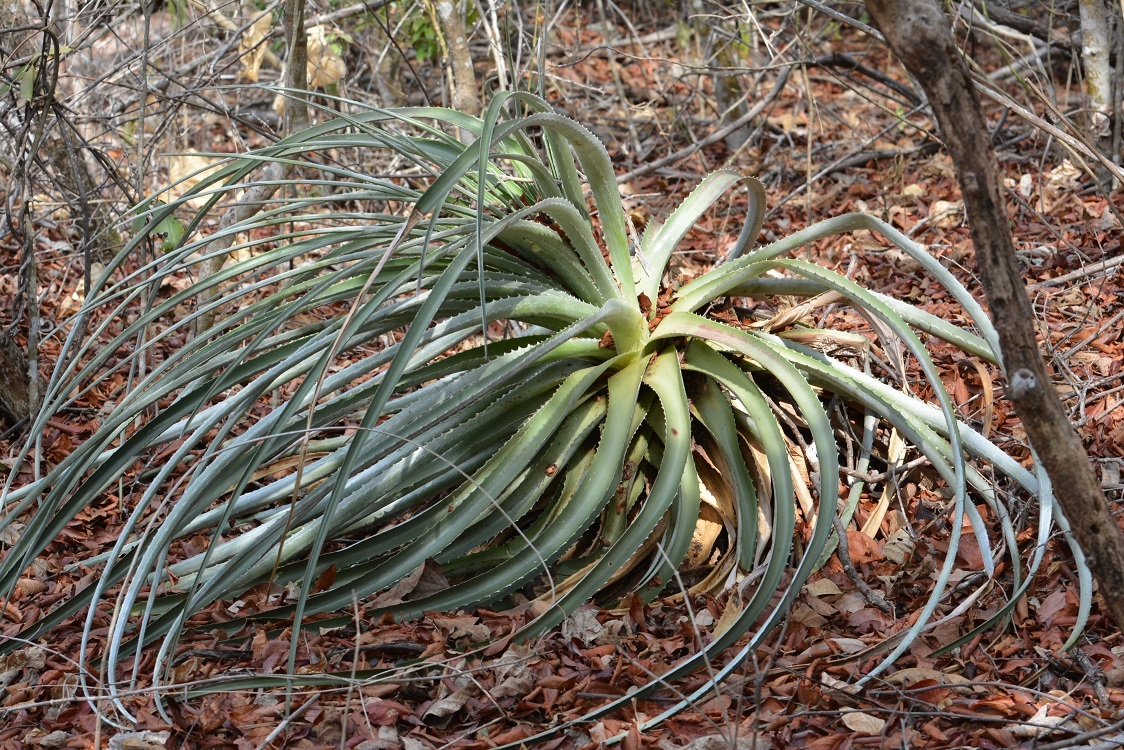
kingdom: Plantae
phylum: Tracheophyta
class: Liliopsida
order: Poales
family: Bromeliaceae
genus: Hechtia
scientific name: Hechtia glomerata
